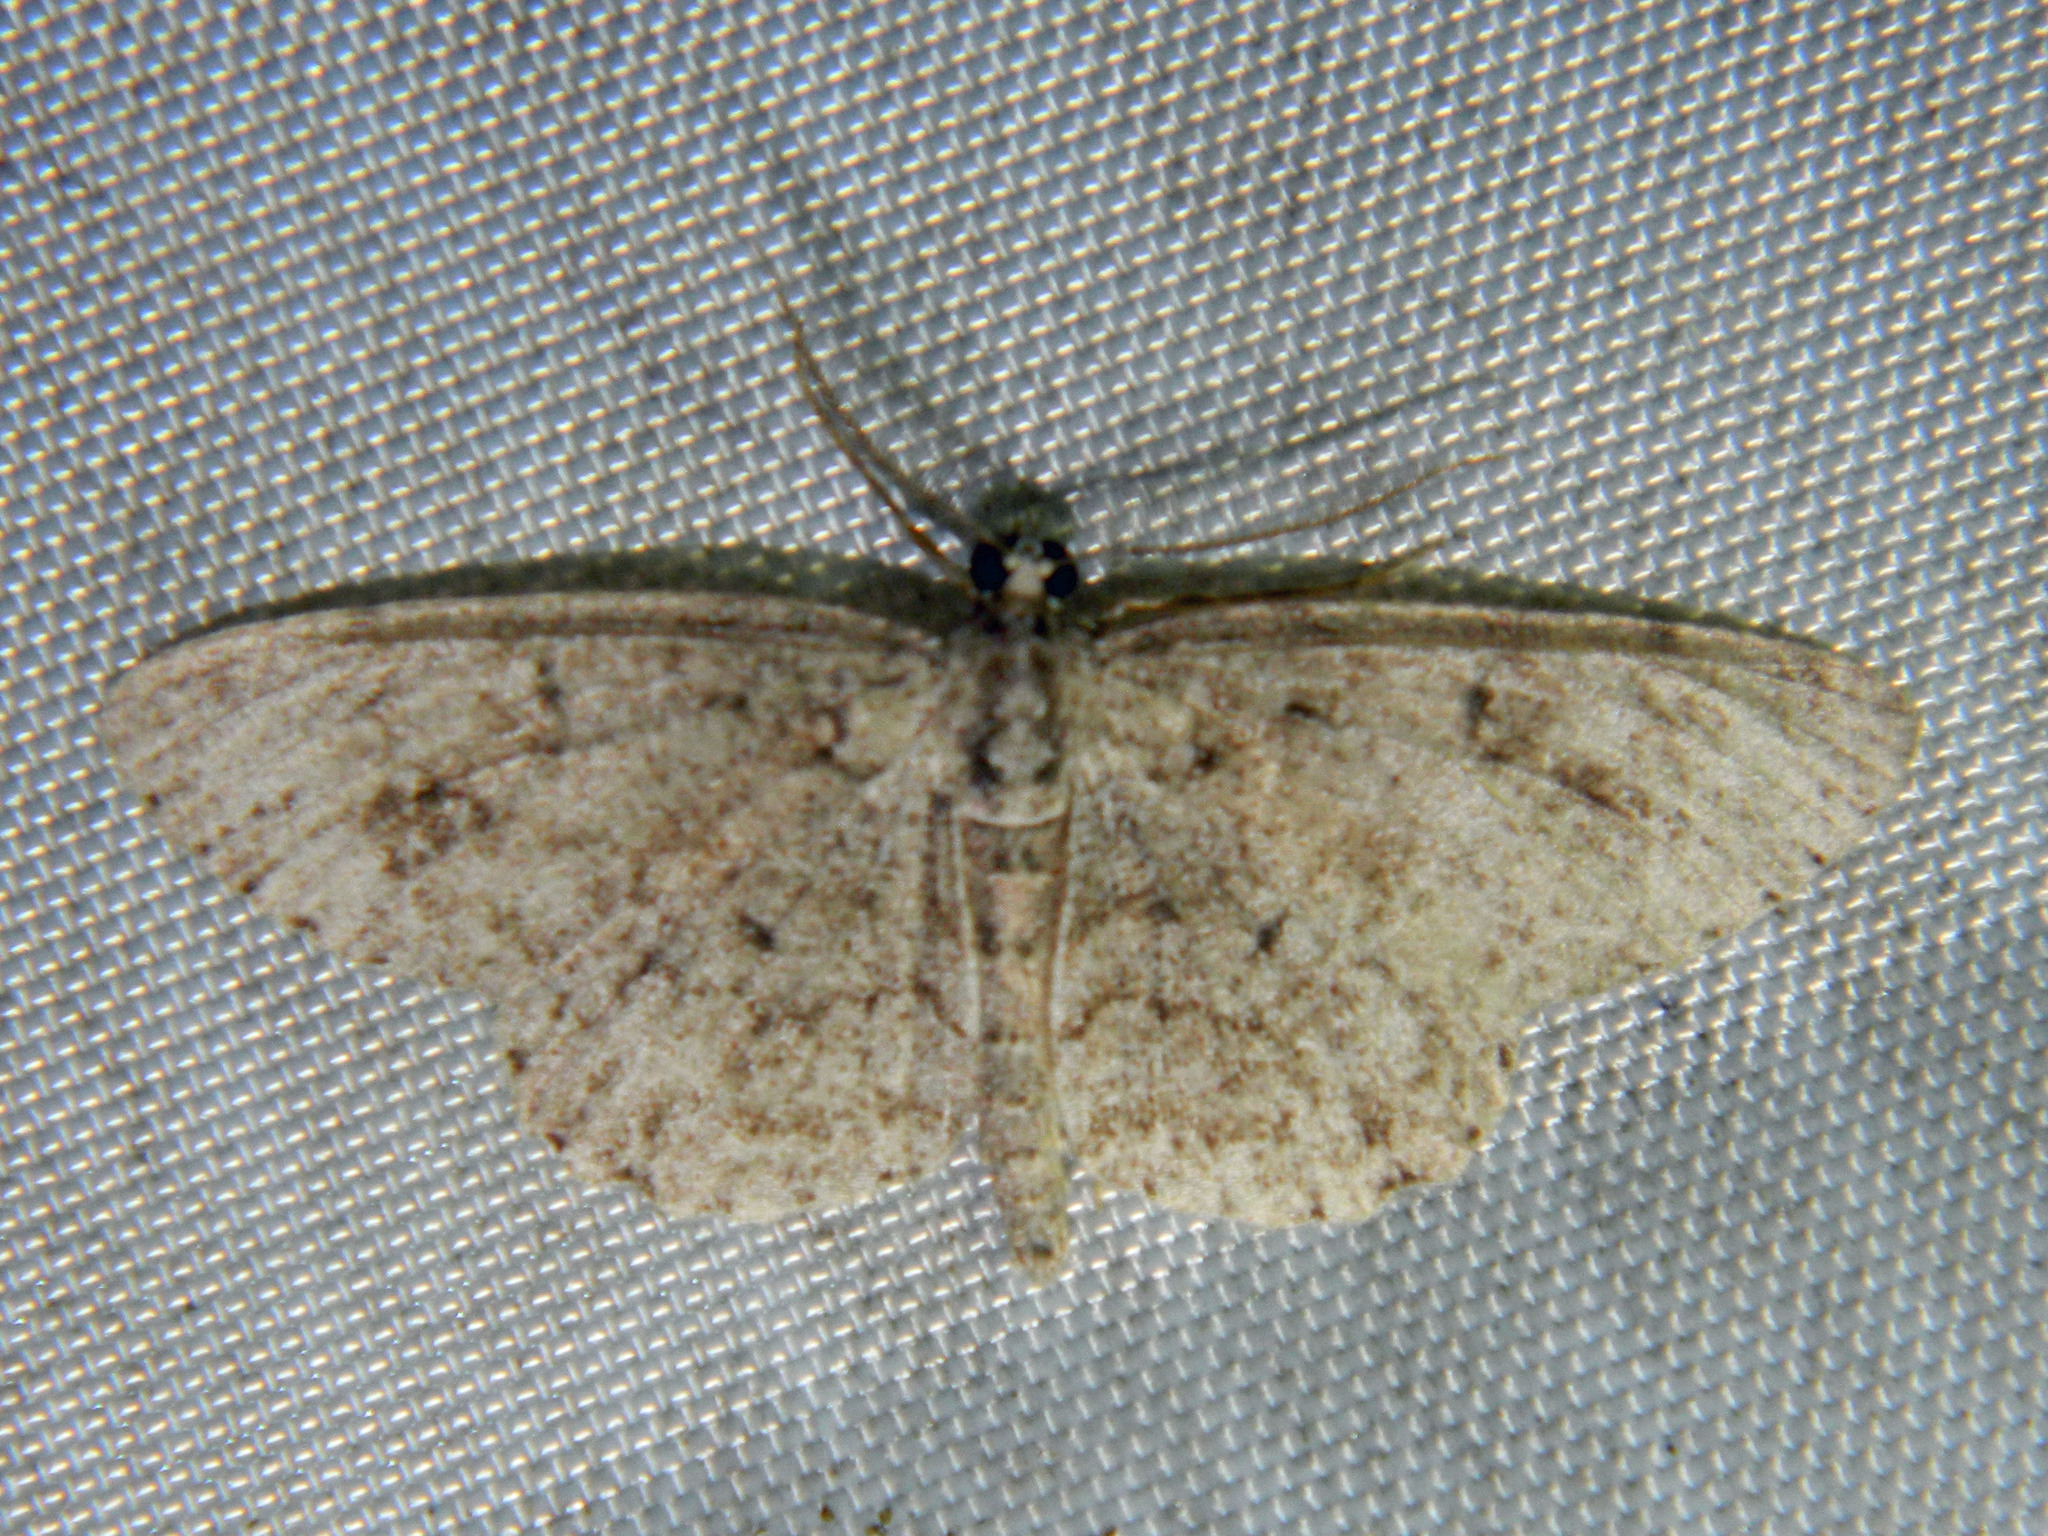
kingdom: Animalia
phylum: Arthropoda
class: Insecta
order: Lepidoptera
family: Geometridae
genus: Protoboarmia
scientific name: Protoboarmia porcelaria
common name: Porcelain gray
